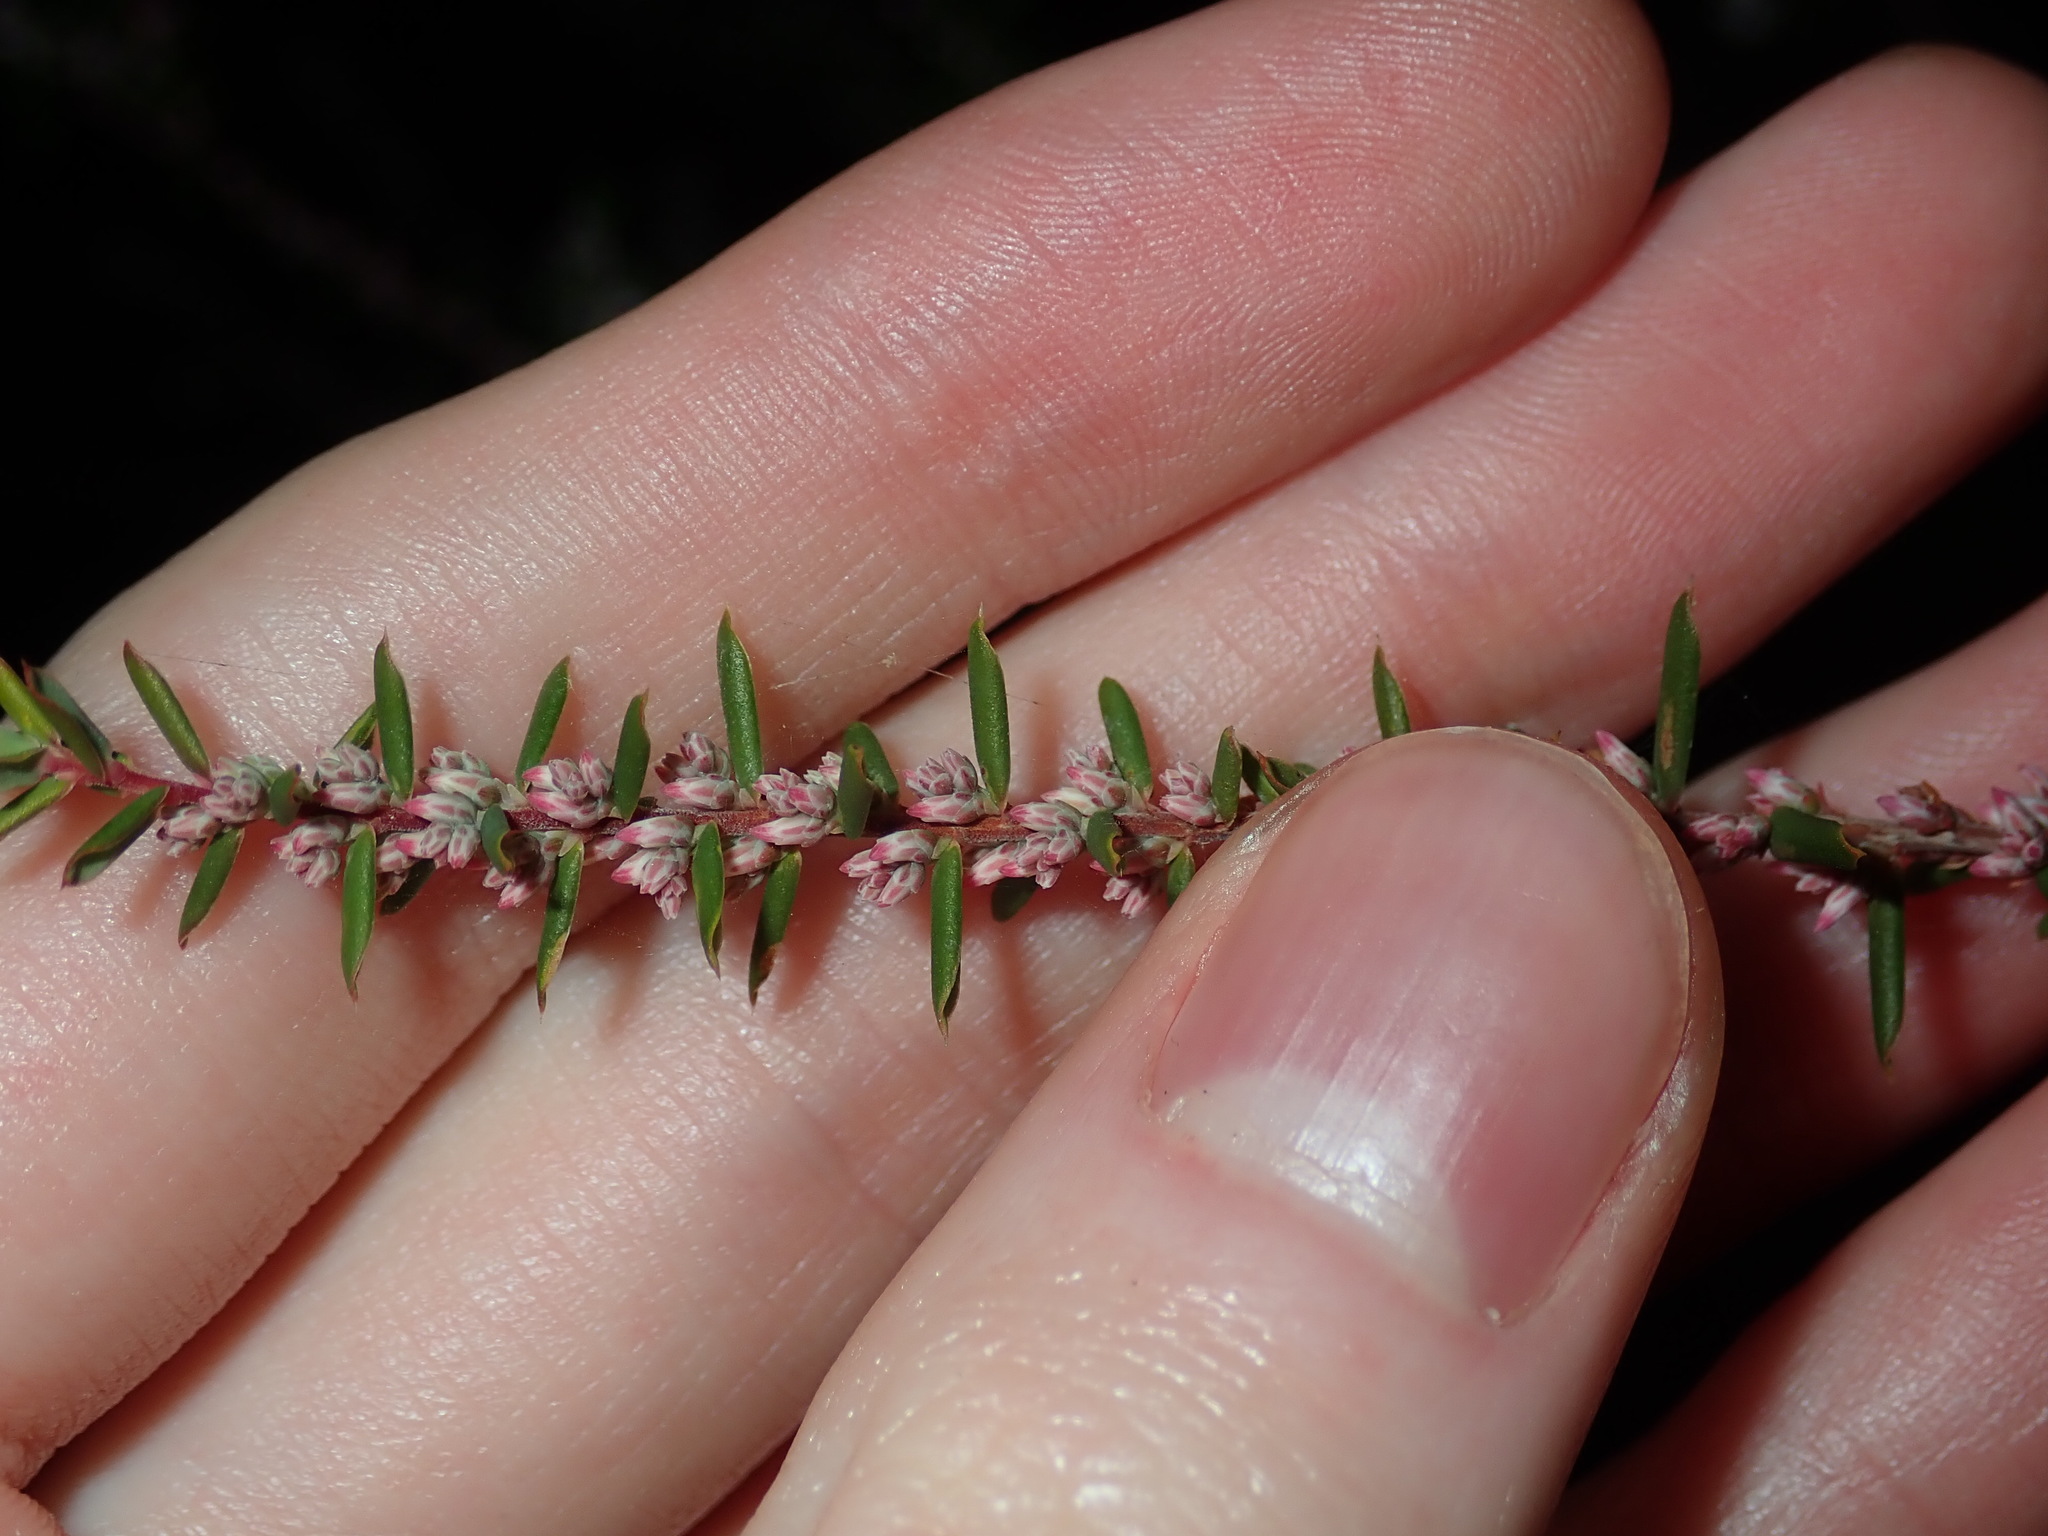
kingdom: Plantae
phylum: Tracheophyta
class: Magnoliopsida
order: Ericales
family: Ericaceae
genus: Styphelia
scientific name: Styphelia ericoides
